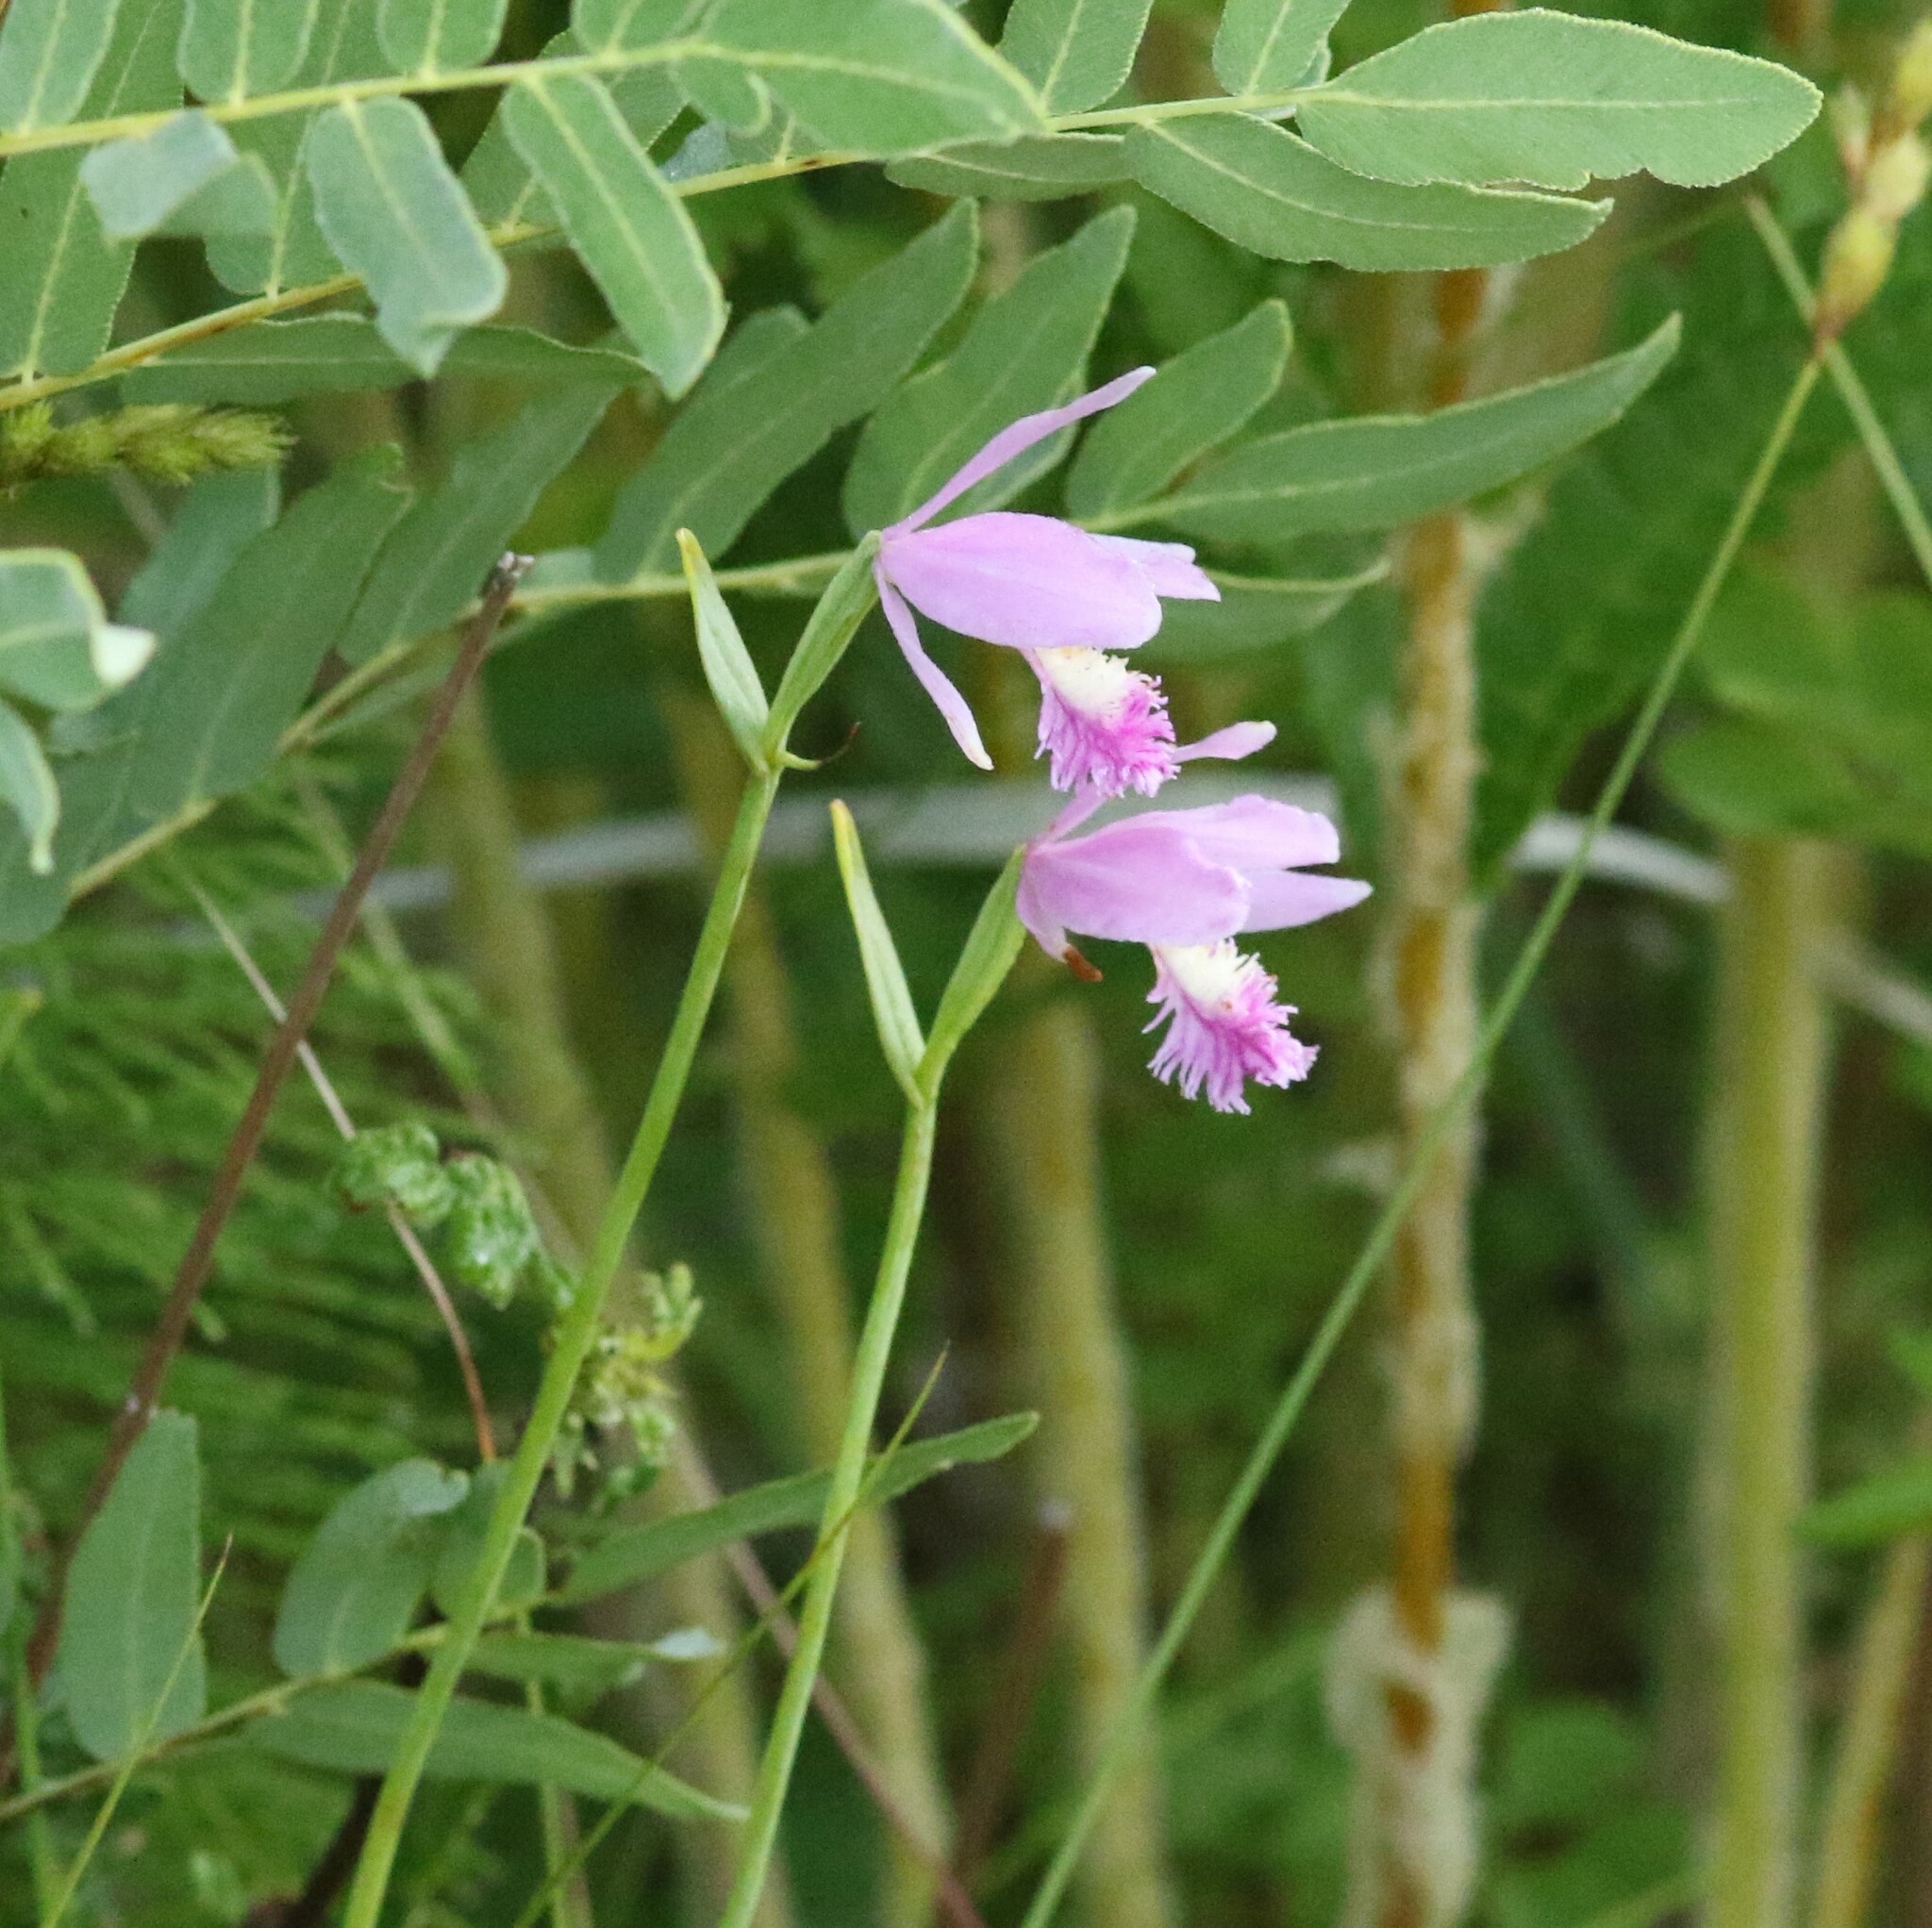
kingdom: Plantae
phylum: Tracheophyta
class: Liliopsida
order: Asparagales
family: Orchidaceae
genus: Pogonia
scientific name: Pogonia ophioglossoides
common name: Rose pogonia
